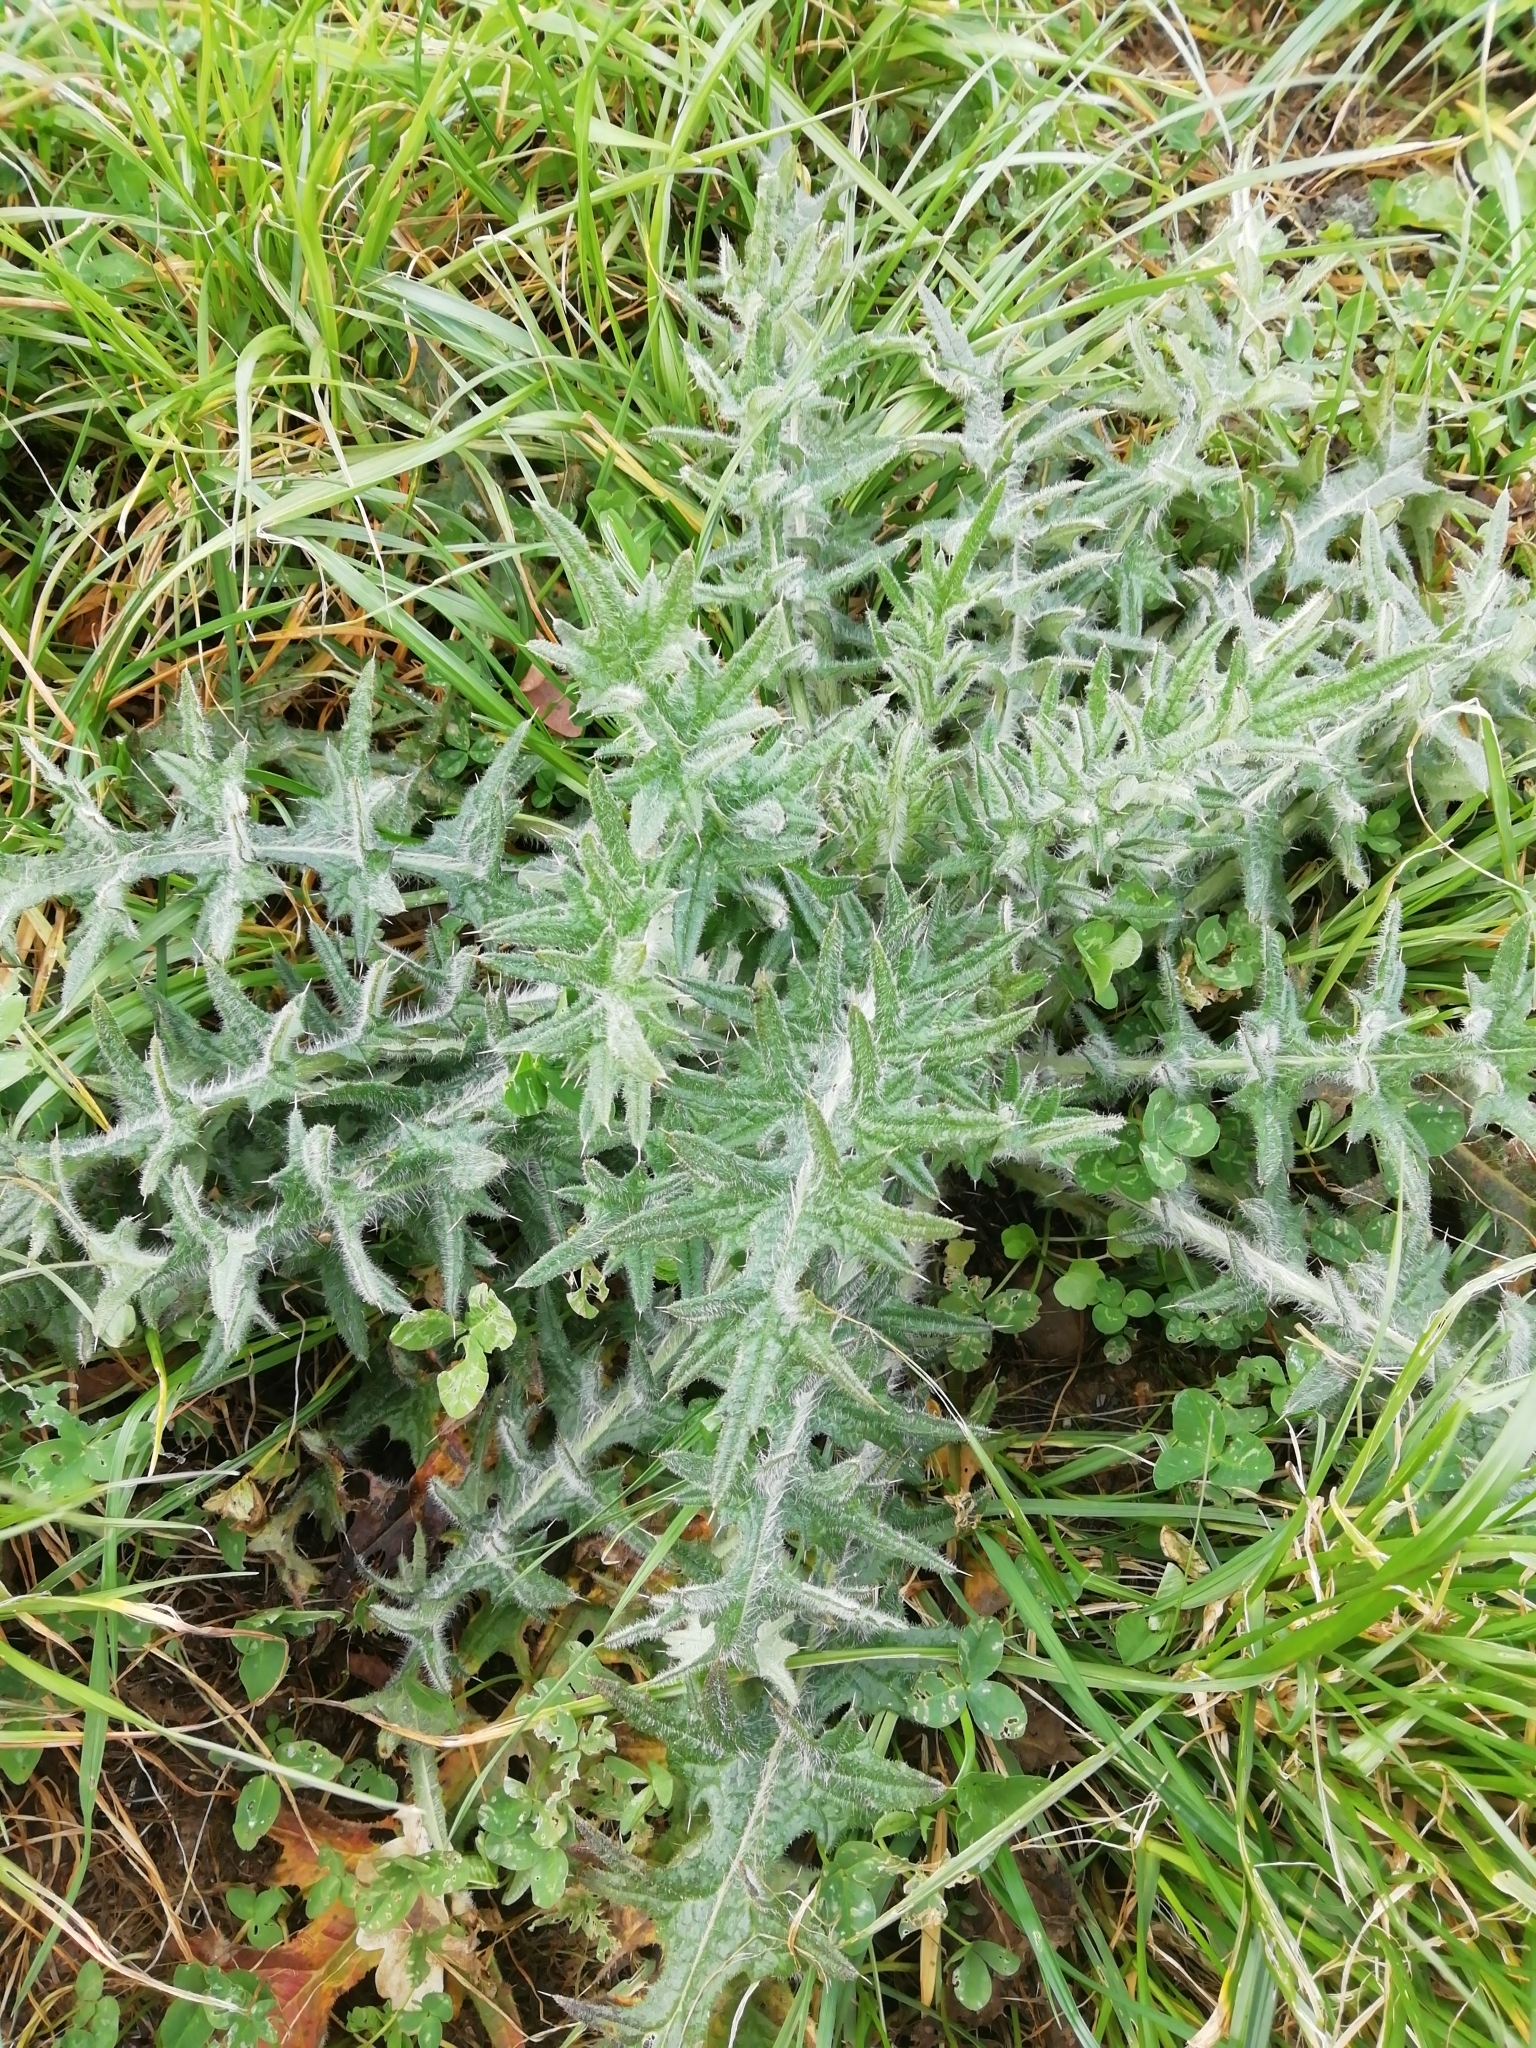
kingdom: Plantae
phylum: Tracheophyta
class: Magnoliopsida
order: Asterales
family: Asteraceae
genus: Cirsium
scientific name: Cirsium vulgare
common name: Bull thistle
